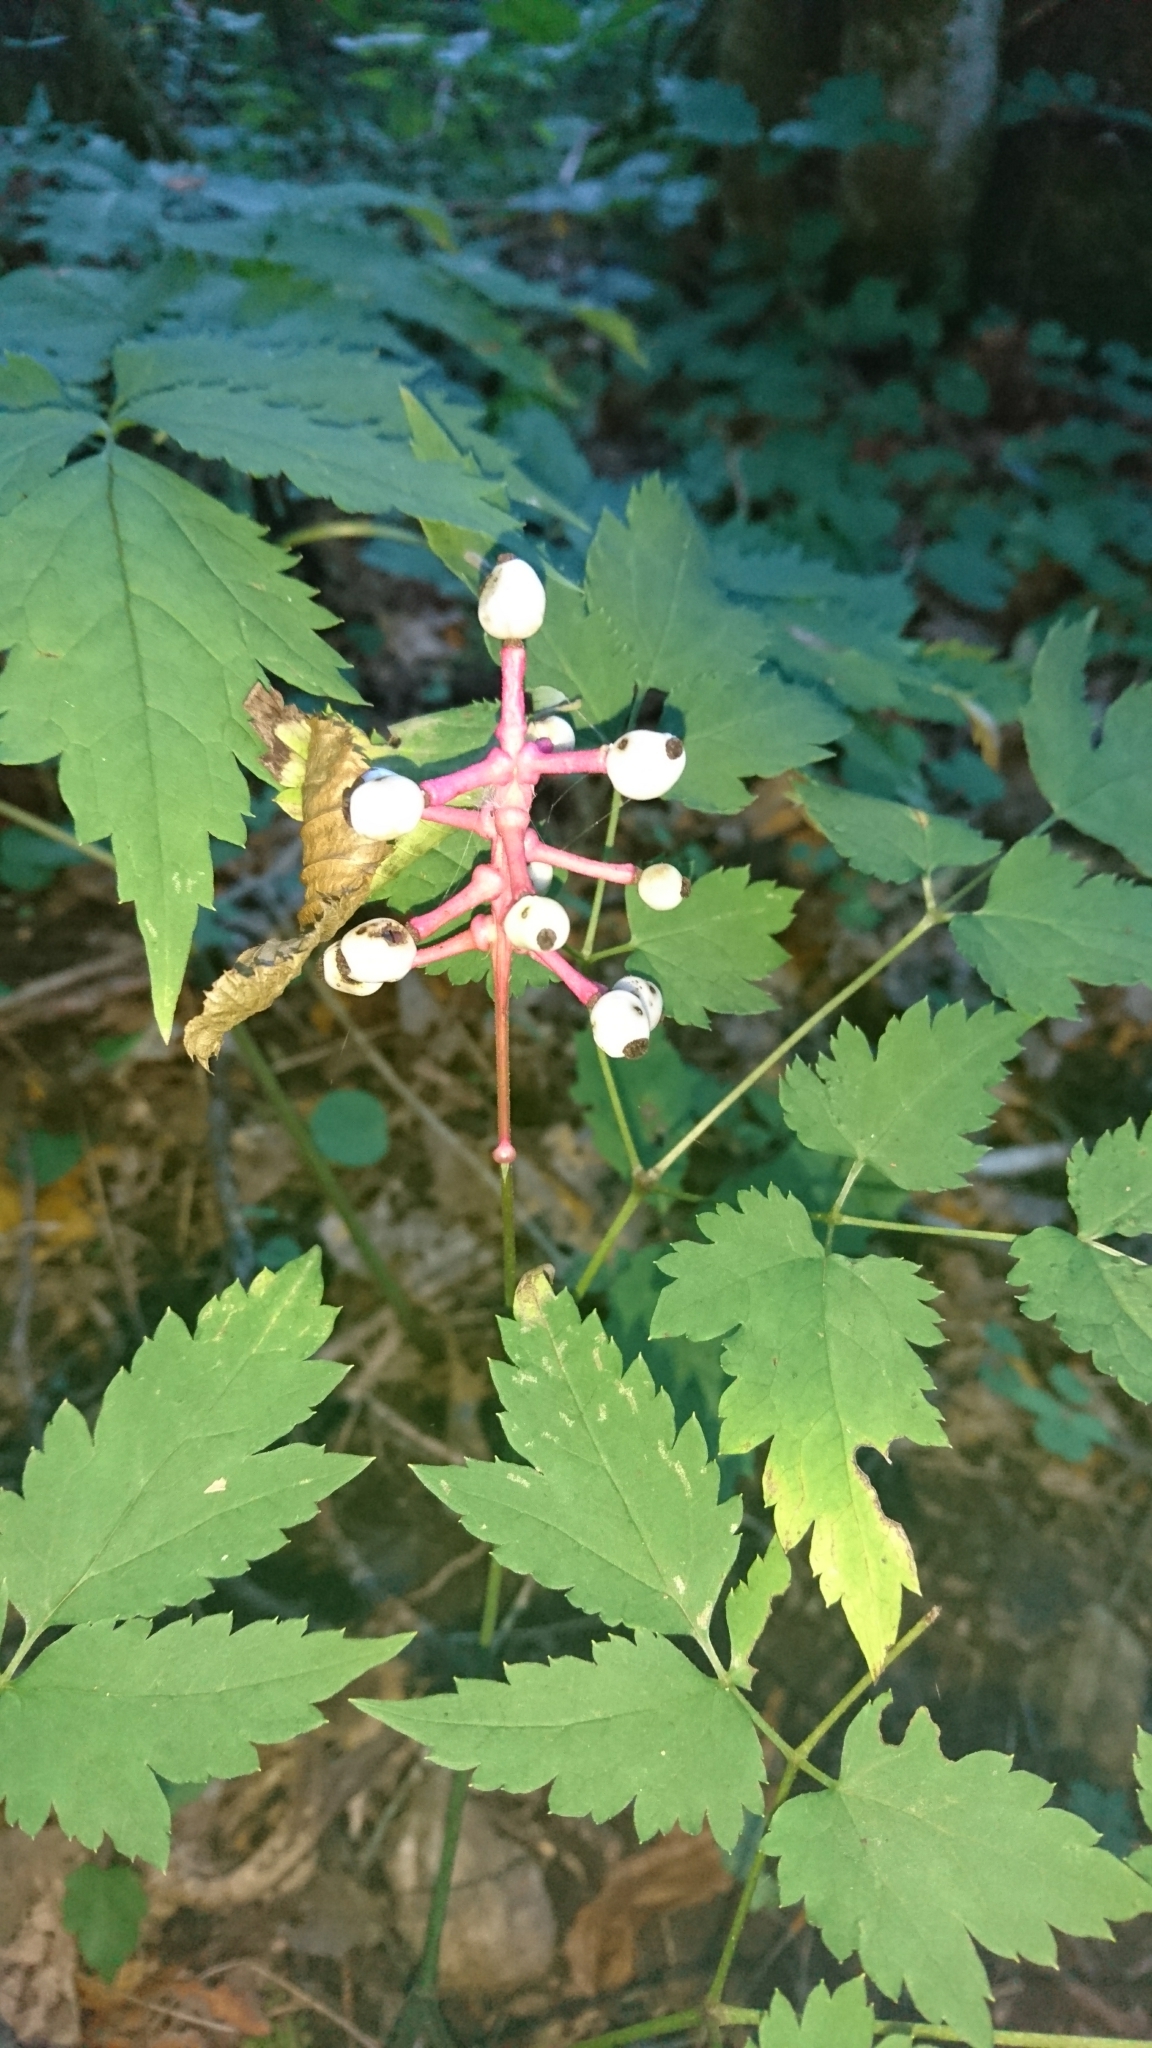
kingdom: Plantae
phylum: Tracheophyta
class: Magnoliopsida
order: Ranunculales
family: Ranunculaceae
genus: Actaea
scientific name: Actaea pachypoda
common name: Doll's-eyes
